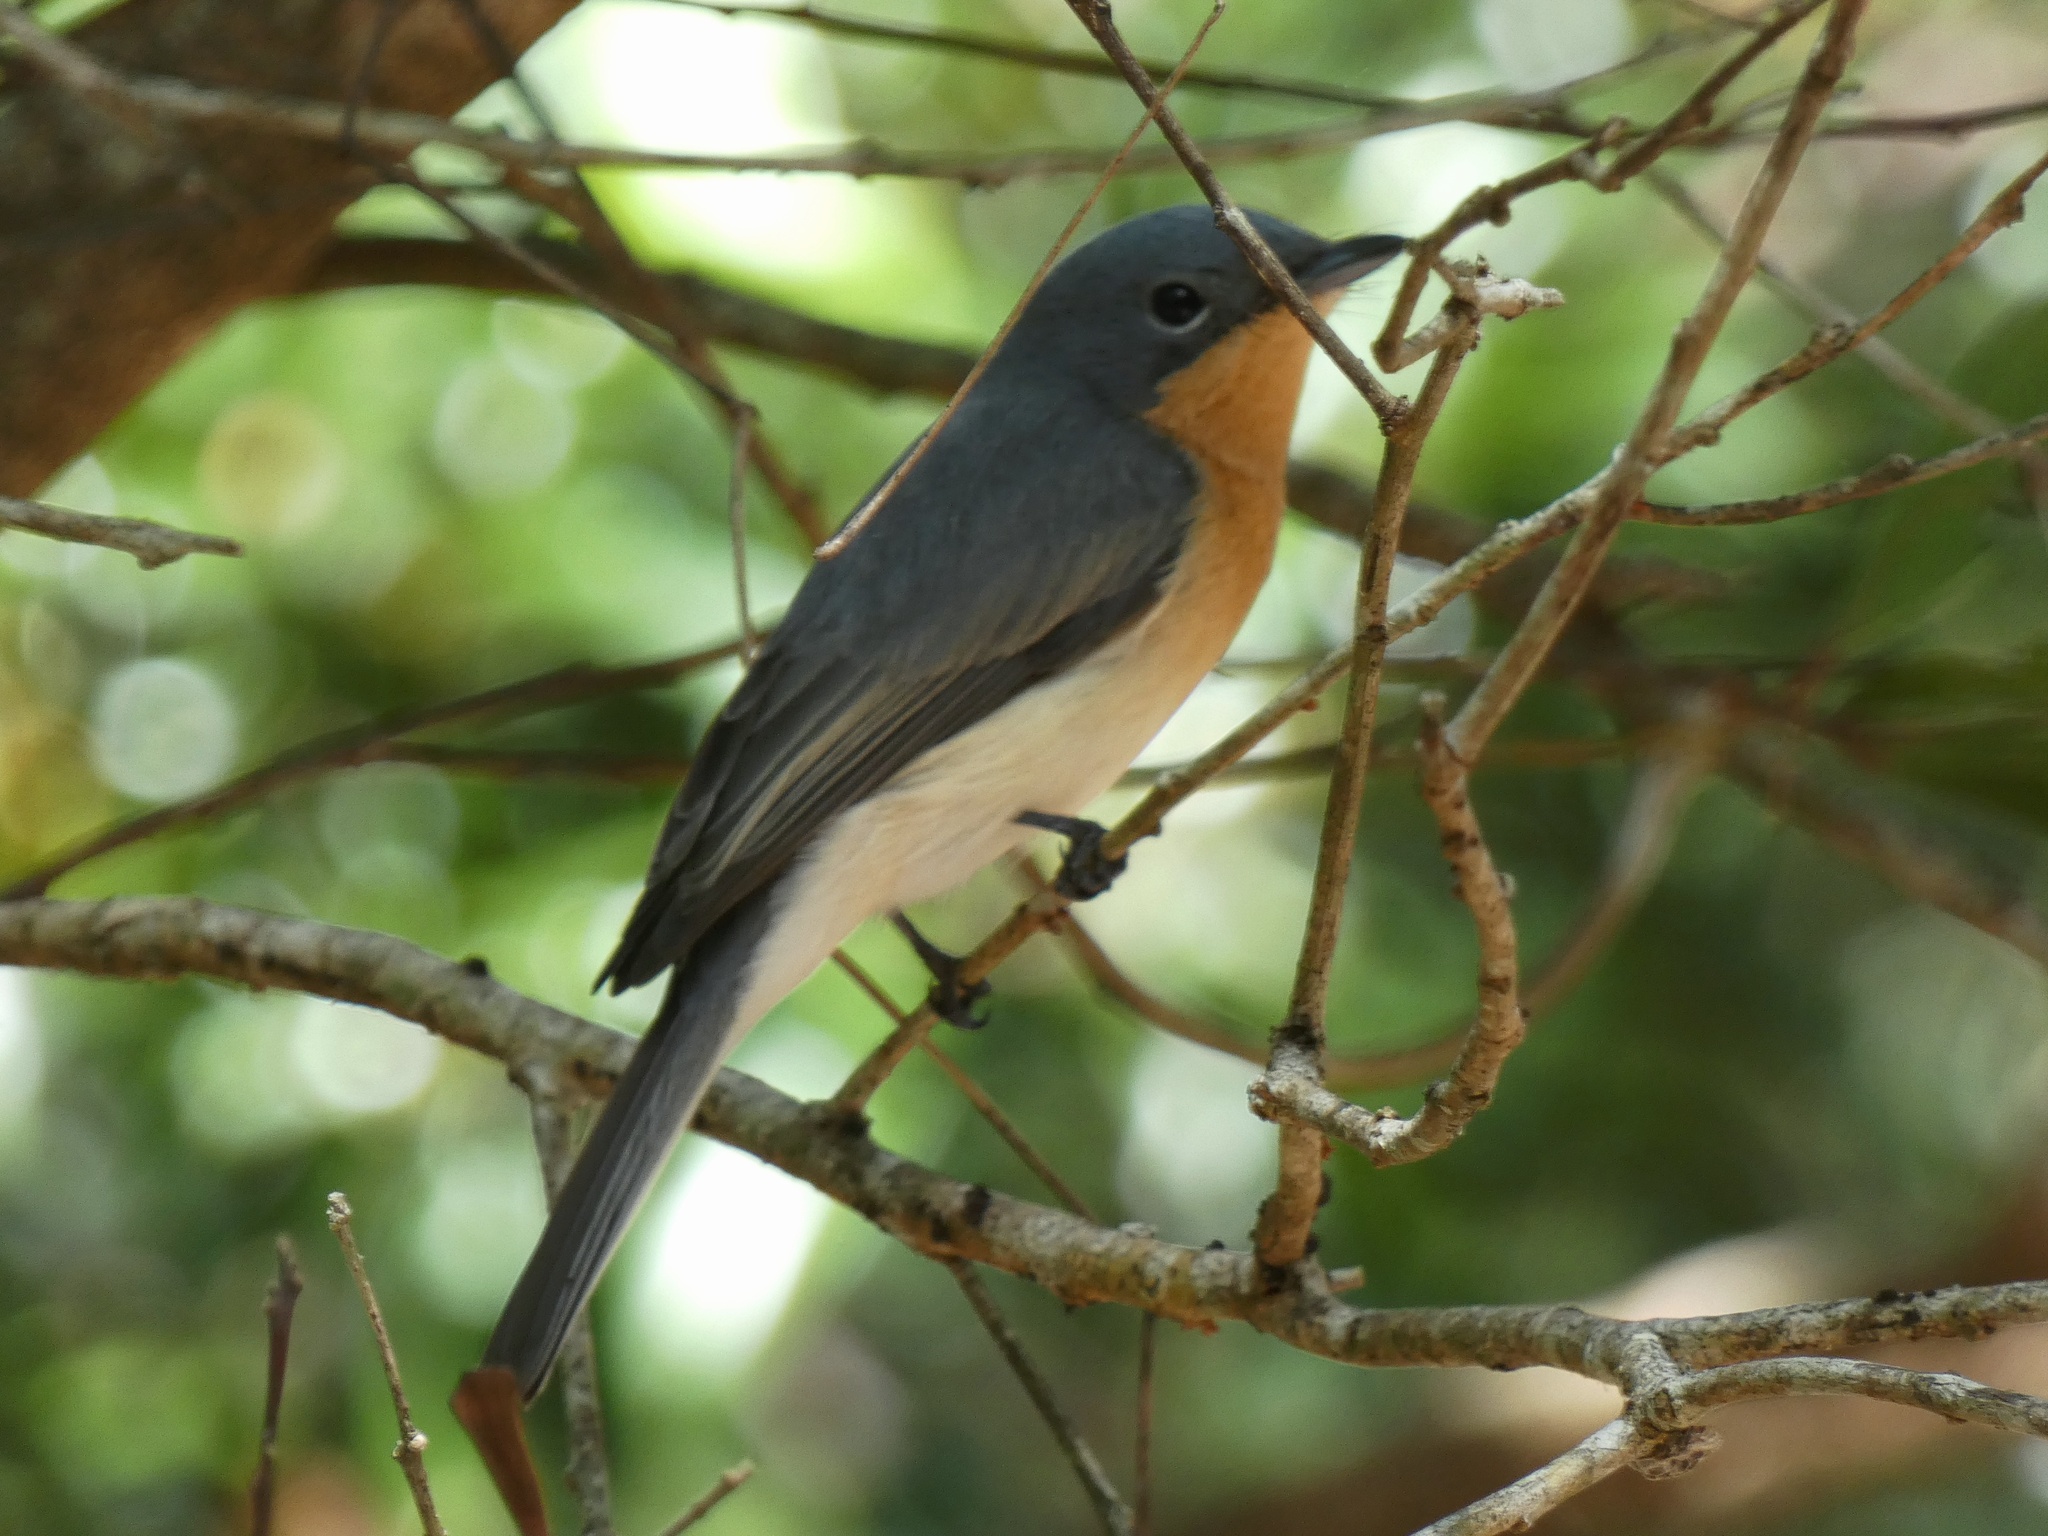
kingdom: Animalia
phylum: Chordata
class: Aves
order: Passeriformes
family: Monarchidae
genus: Myiagra
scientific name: Myiagra rubecula
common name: Leaden flycatcher
